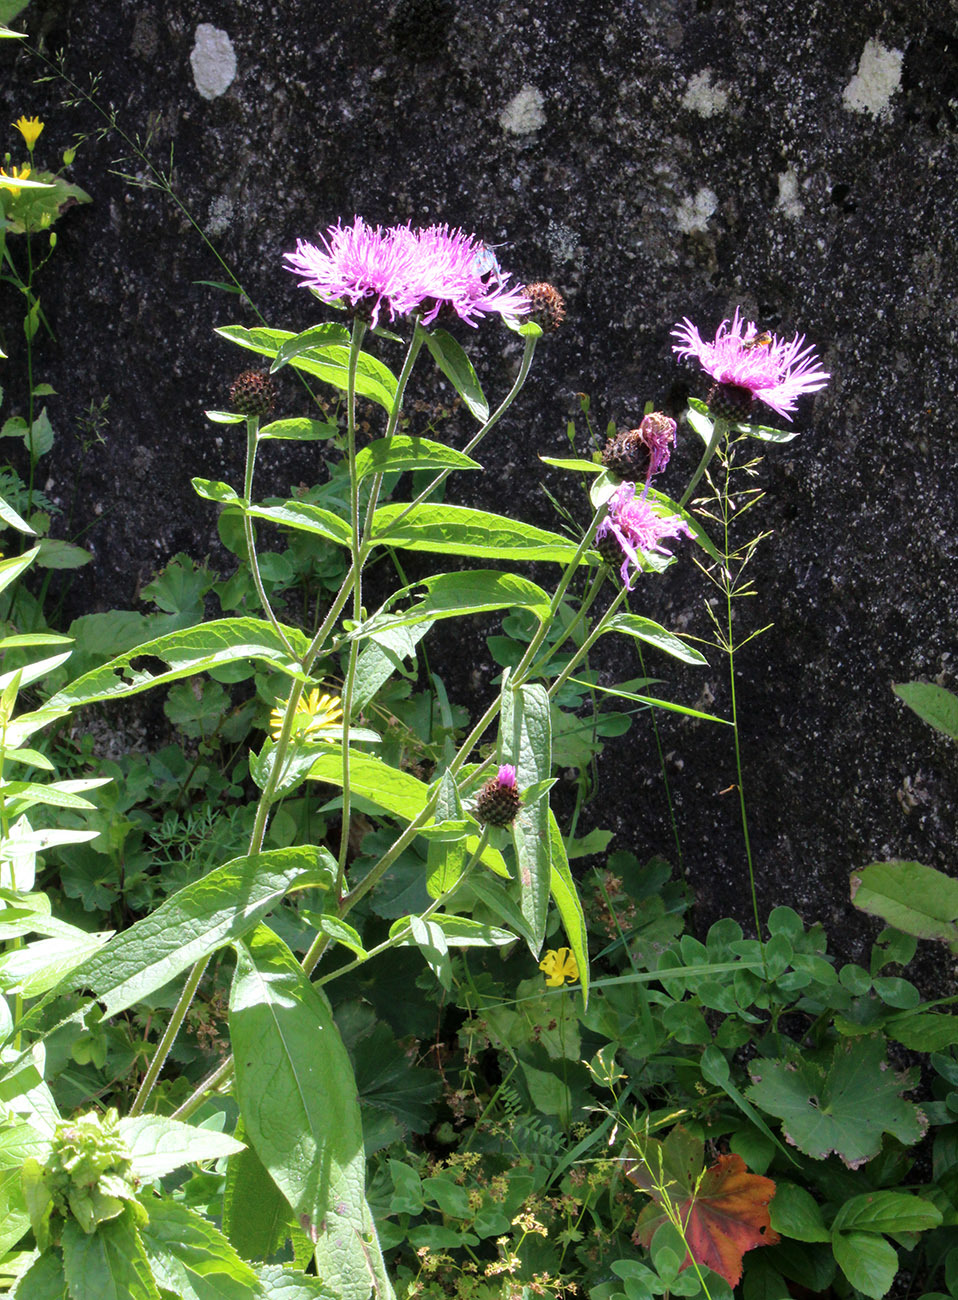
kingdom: Plantae
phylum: Tracheophyta
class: Magnoliopsida
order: Asterales
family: Asteraceae
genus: Centaurea
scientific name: Centaurea phrygia
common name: Wig knapweed
